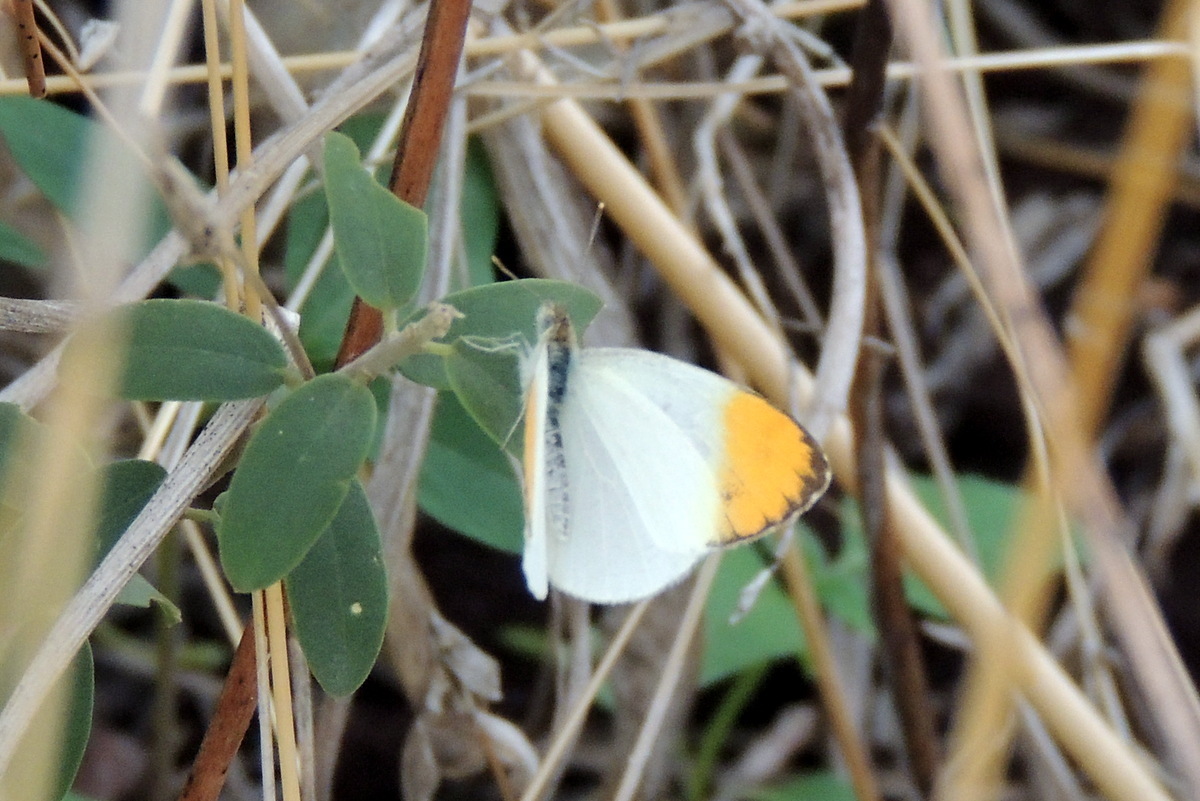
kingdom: Animalia
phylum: Arthropoda
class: Insecta
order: Lepidoptera
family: Pieridae
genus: Colotis
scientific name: Colotis aurora
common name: Plain orange-tip
